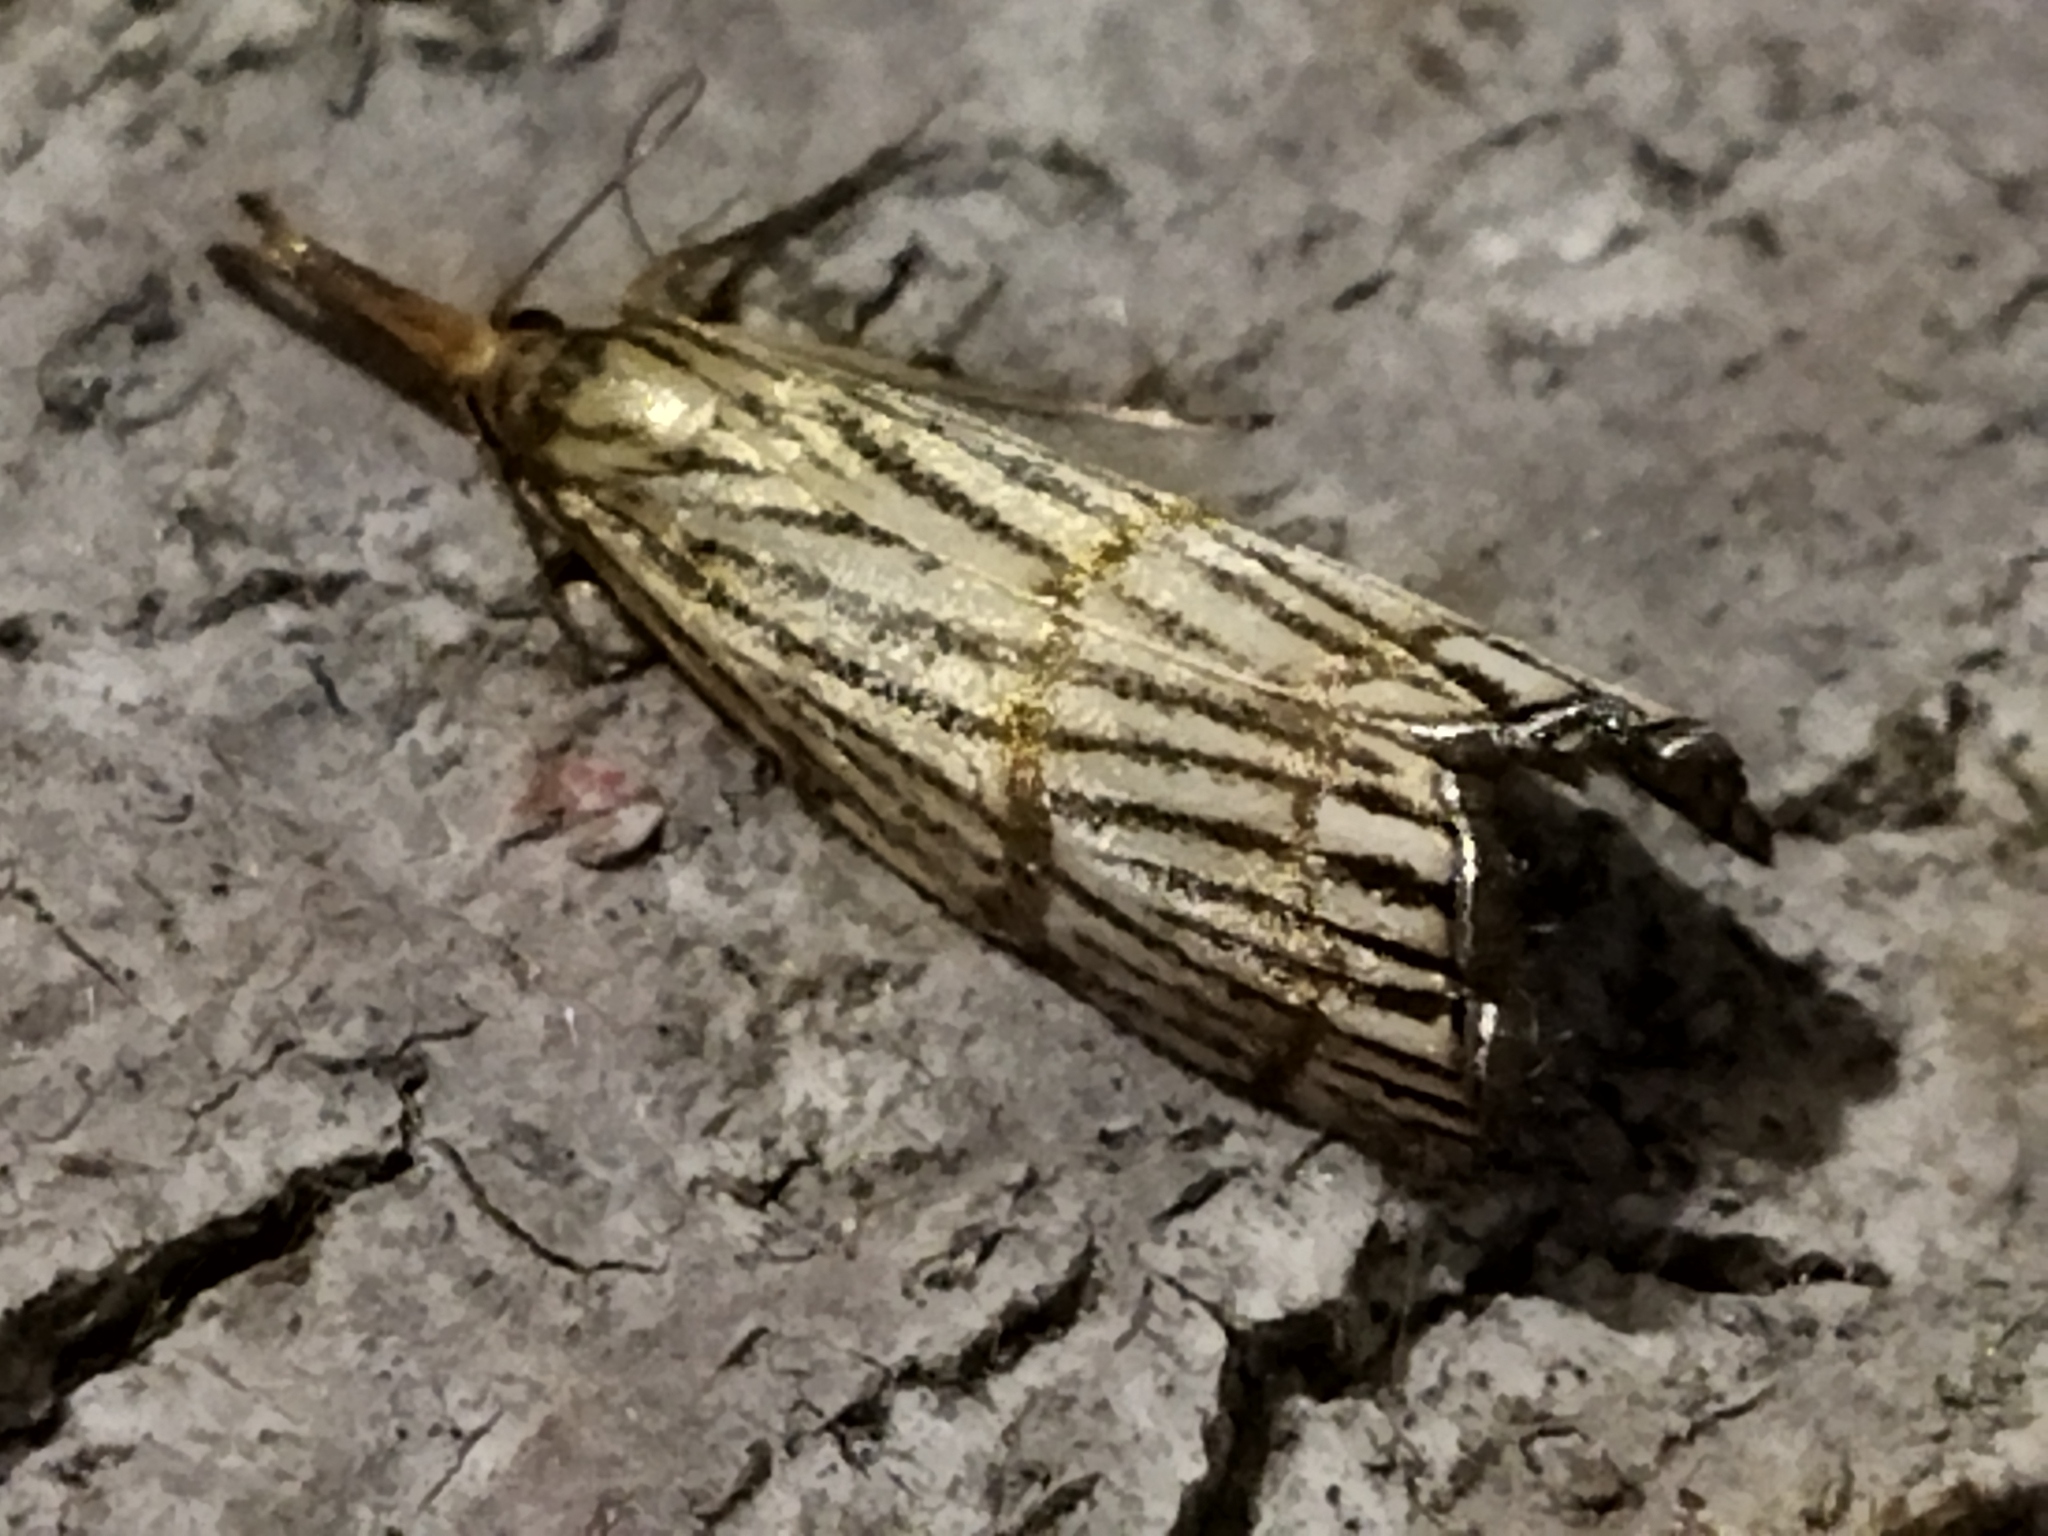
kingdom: Animalia
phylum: Arthropoda
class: Insecta
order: Lepidoptera
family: Crambidae
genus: Chrysocrambus
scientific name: Chrysocrambus linetella
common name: Orange-bar grass-veneer
